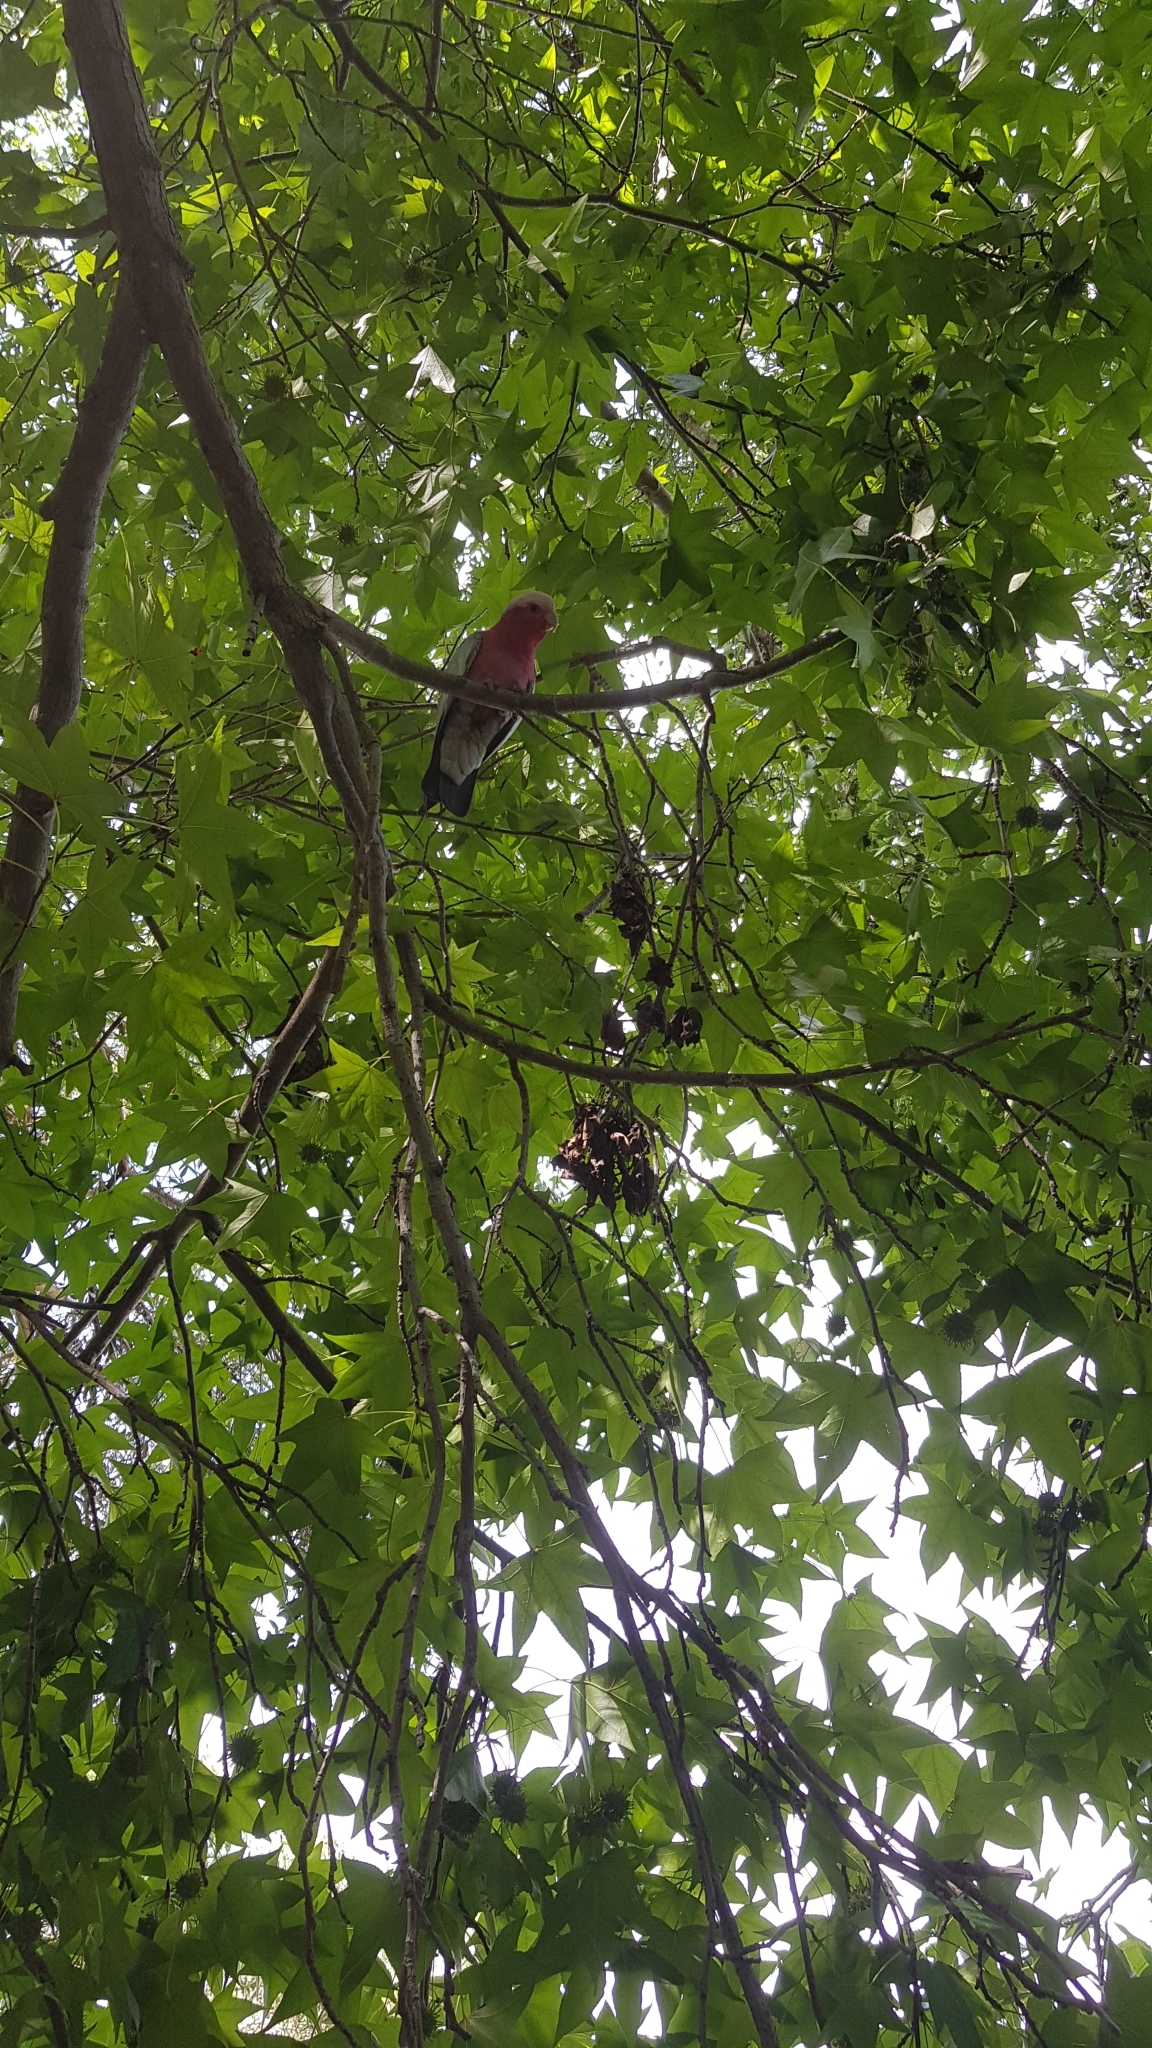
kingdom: Animalia
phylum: Chordata
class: Aves
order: Psittaciformes
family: Psittacidae
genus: Eolophus
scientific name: Eolophus roseicapilla
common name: Galah
